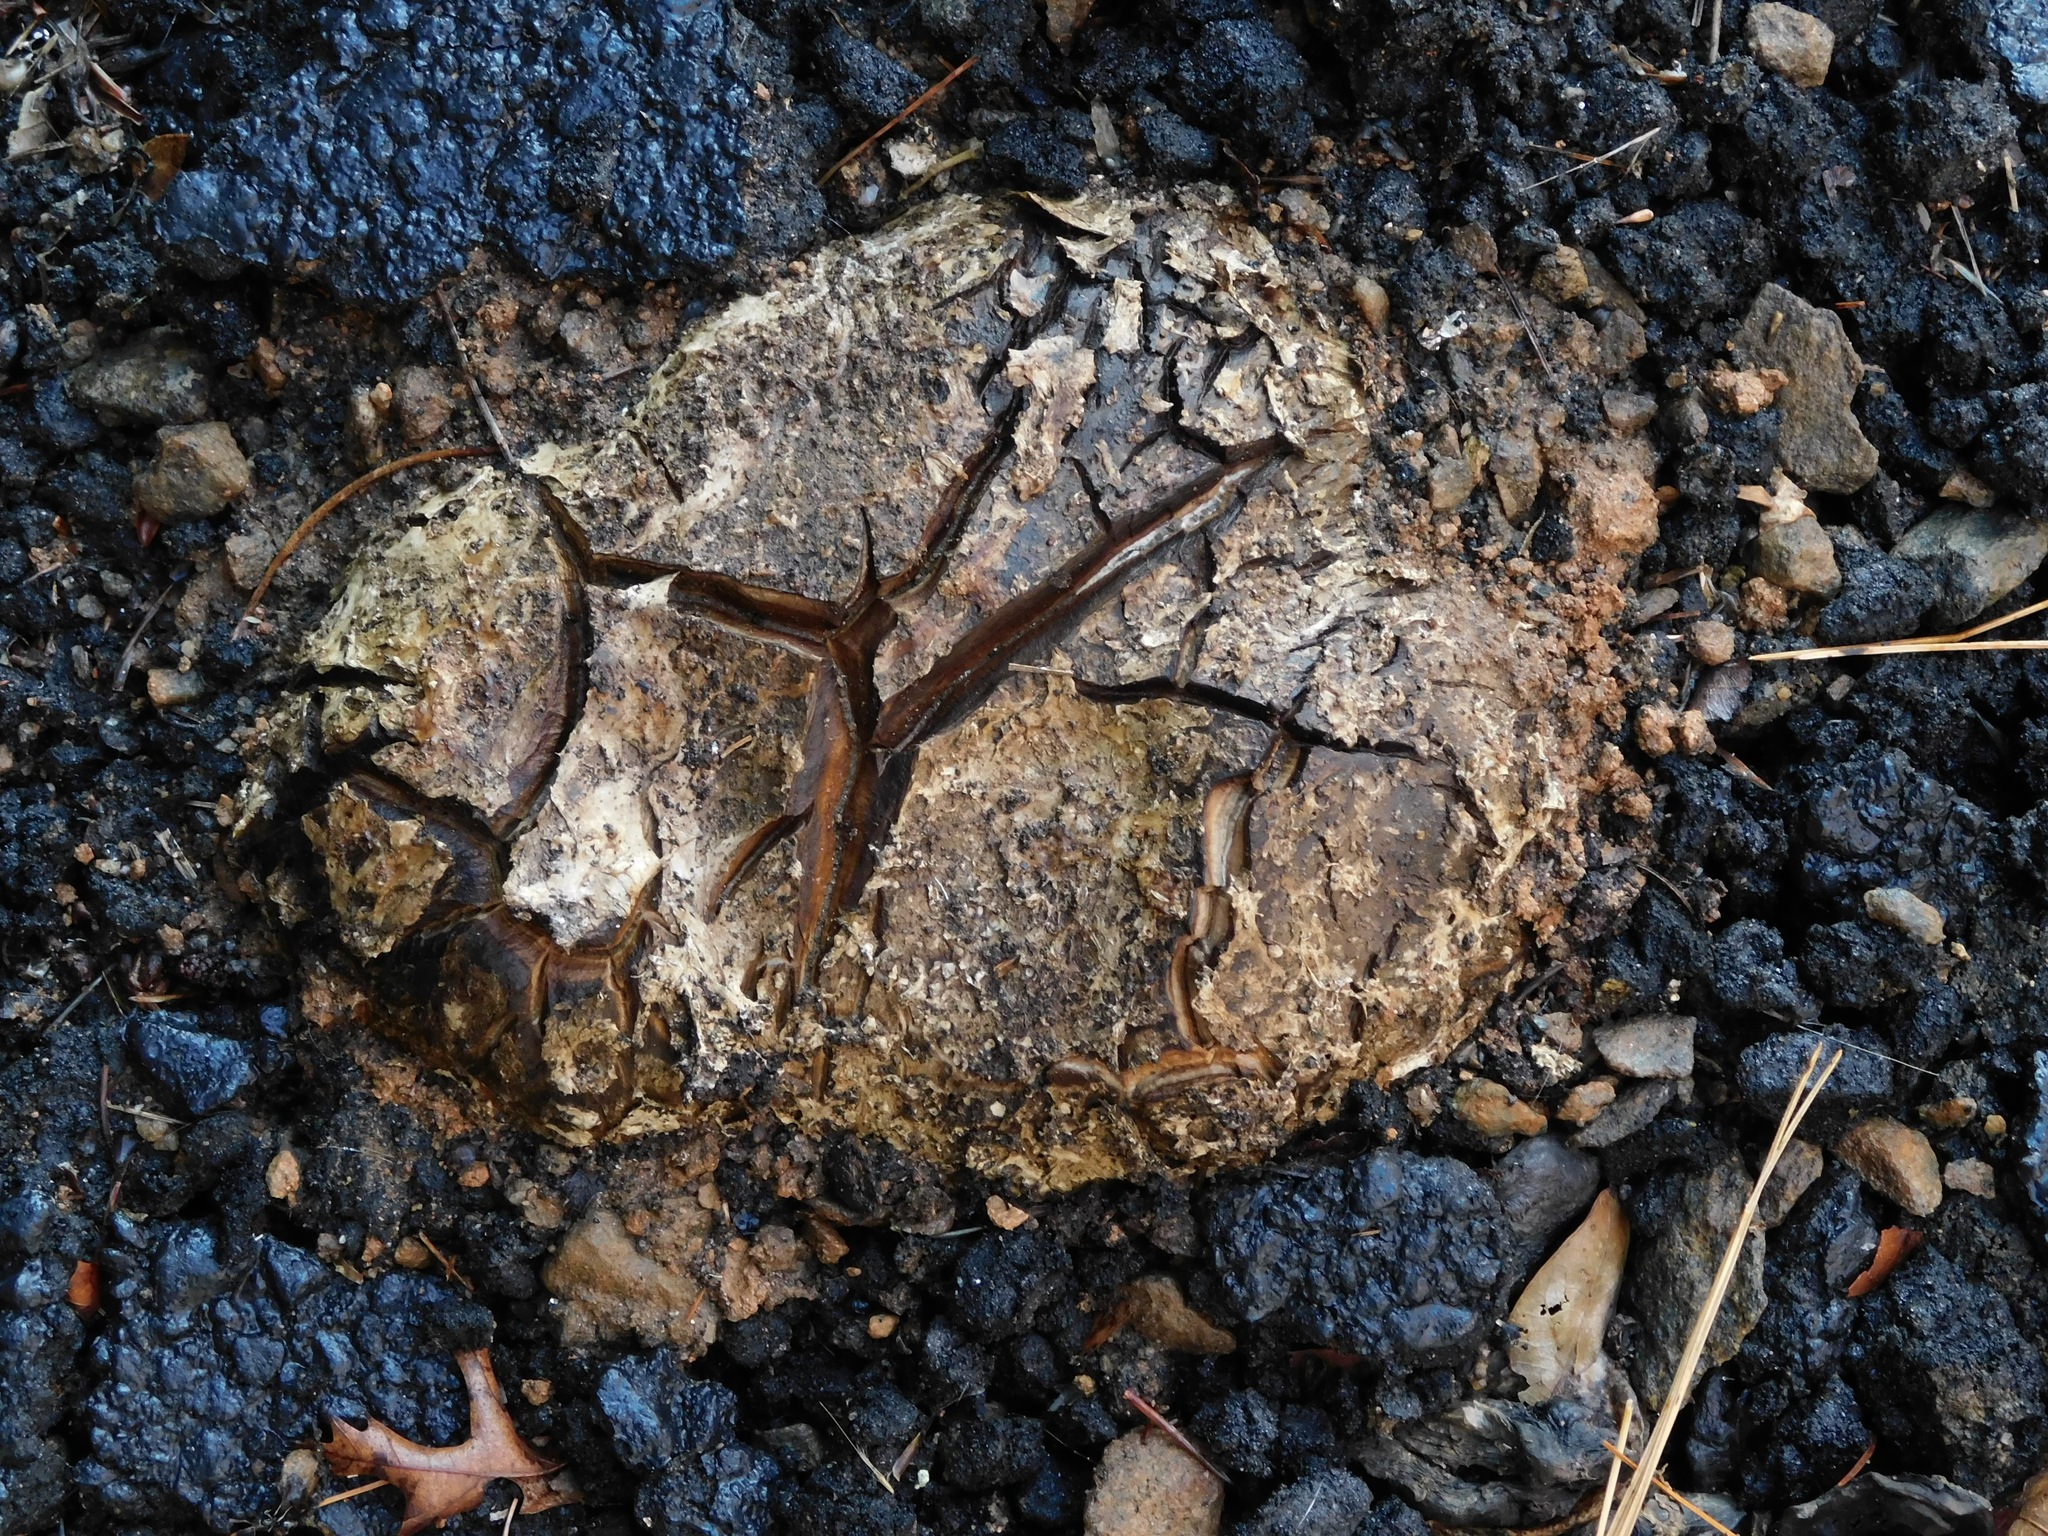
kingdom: Fungi
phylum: Basidiomycota
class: Agaricomycetes
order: Boletales
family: Sclerodermataceae
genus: Scleroderma
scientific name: Scleroderma polyrhizum
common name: Many-rooted earthball
